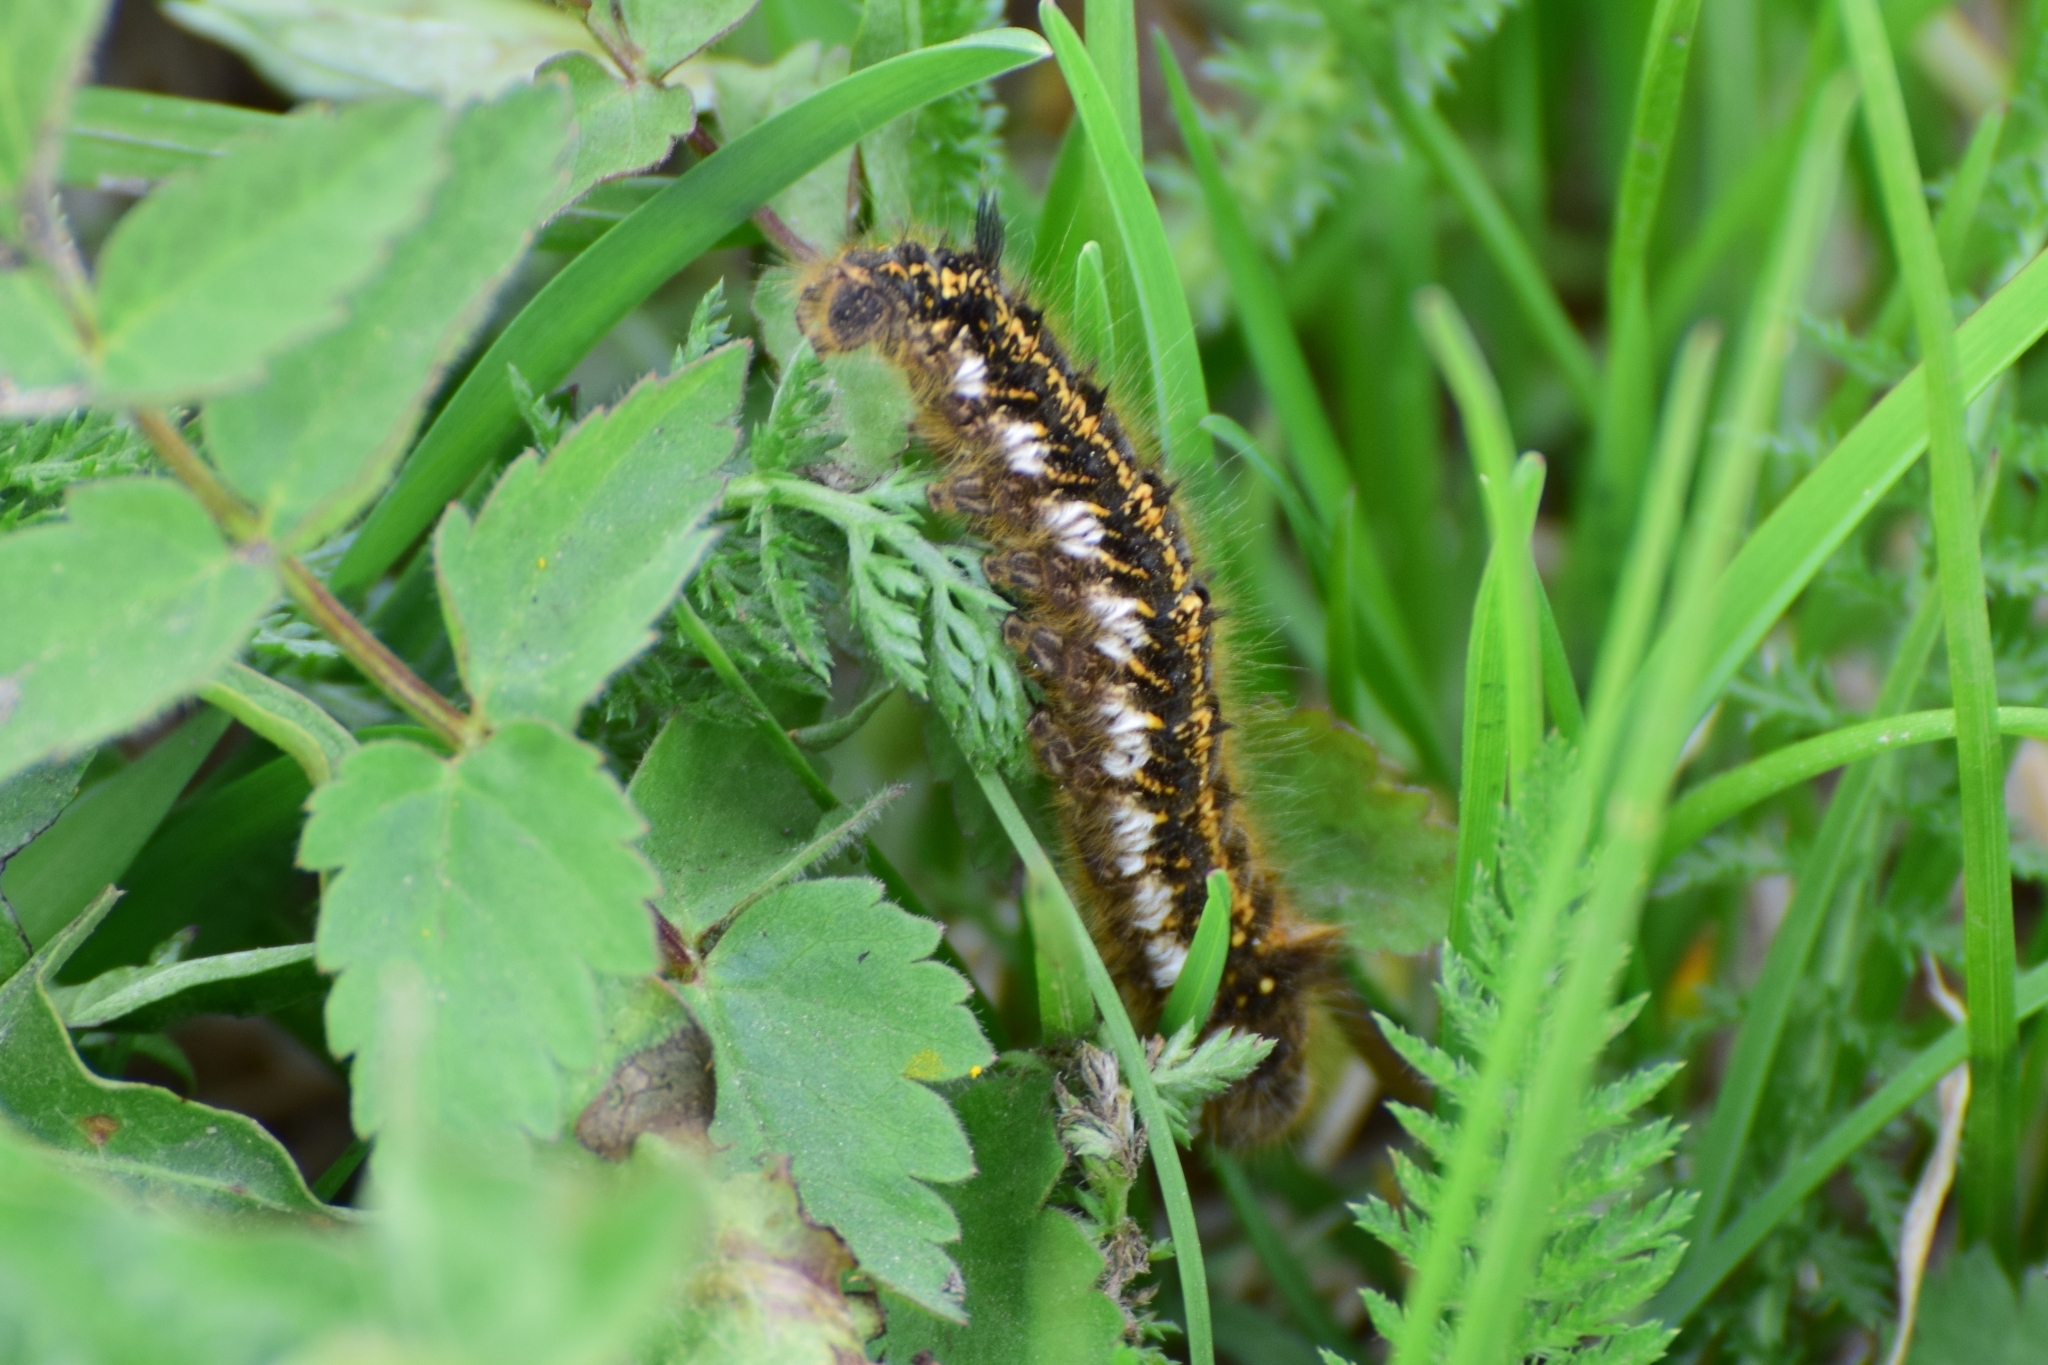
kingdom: Animalia
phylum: Arthropoda
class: Insecta
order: Lepidoptera
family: Lasiocampidae
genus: Euthrix
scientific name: Euthrix potatoria
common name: Drinker
